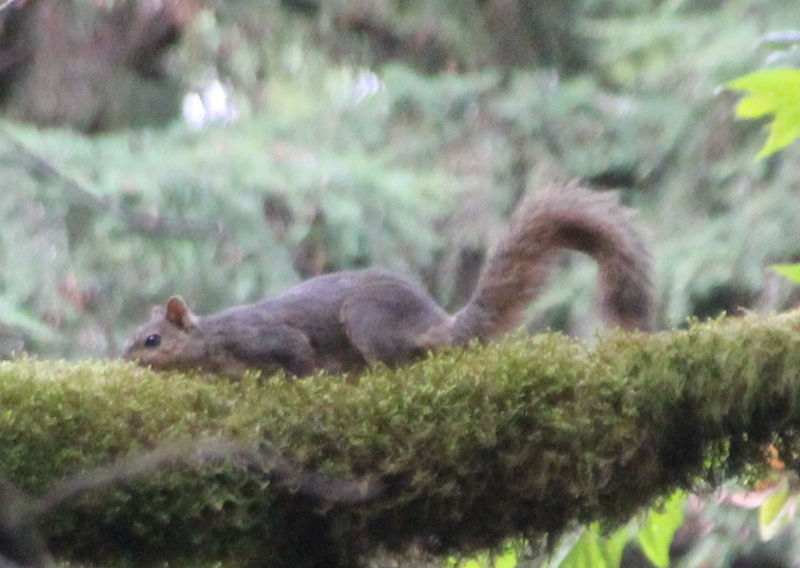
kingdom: Animalia
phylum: Chordata
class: Mammalia
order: Rodentia
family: Sciuridae
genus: Sciurus
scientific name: Sciurus niger
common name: Fox squirrel
